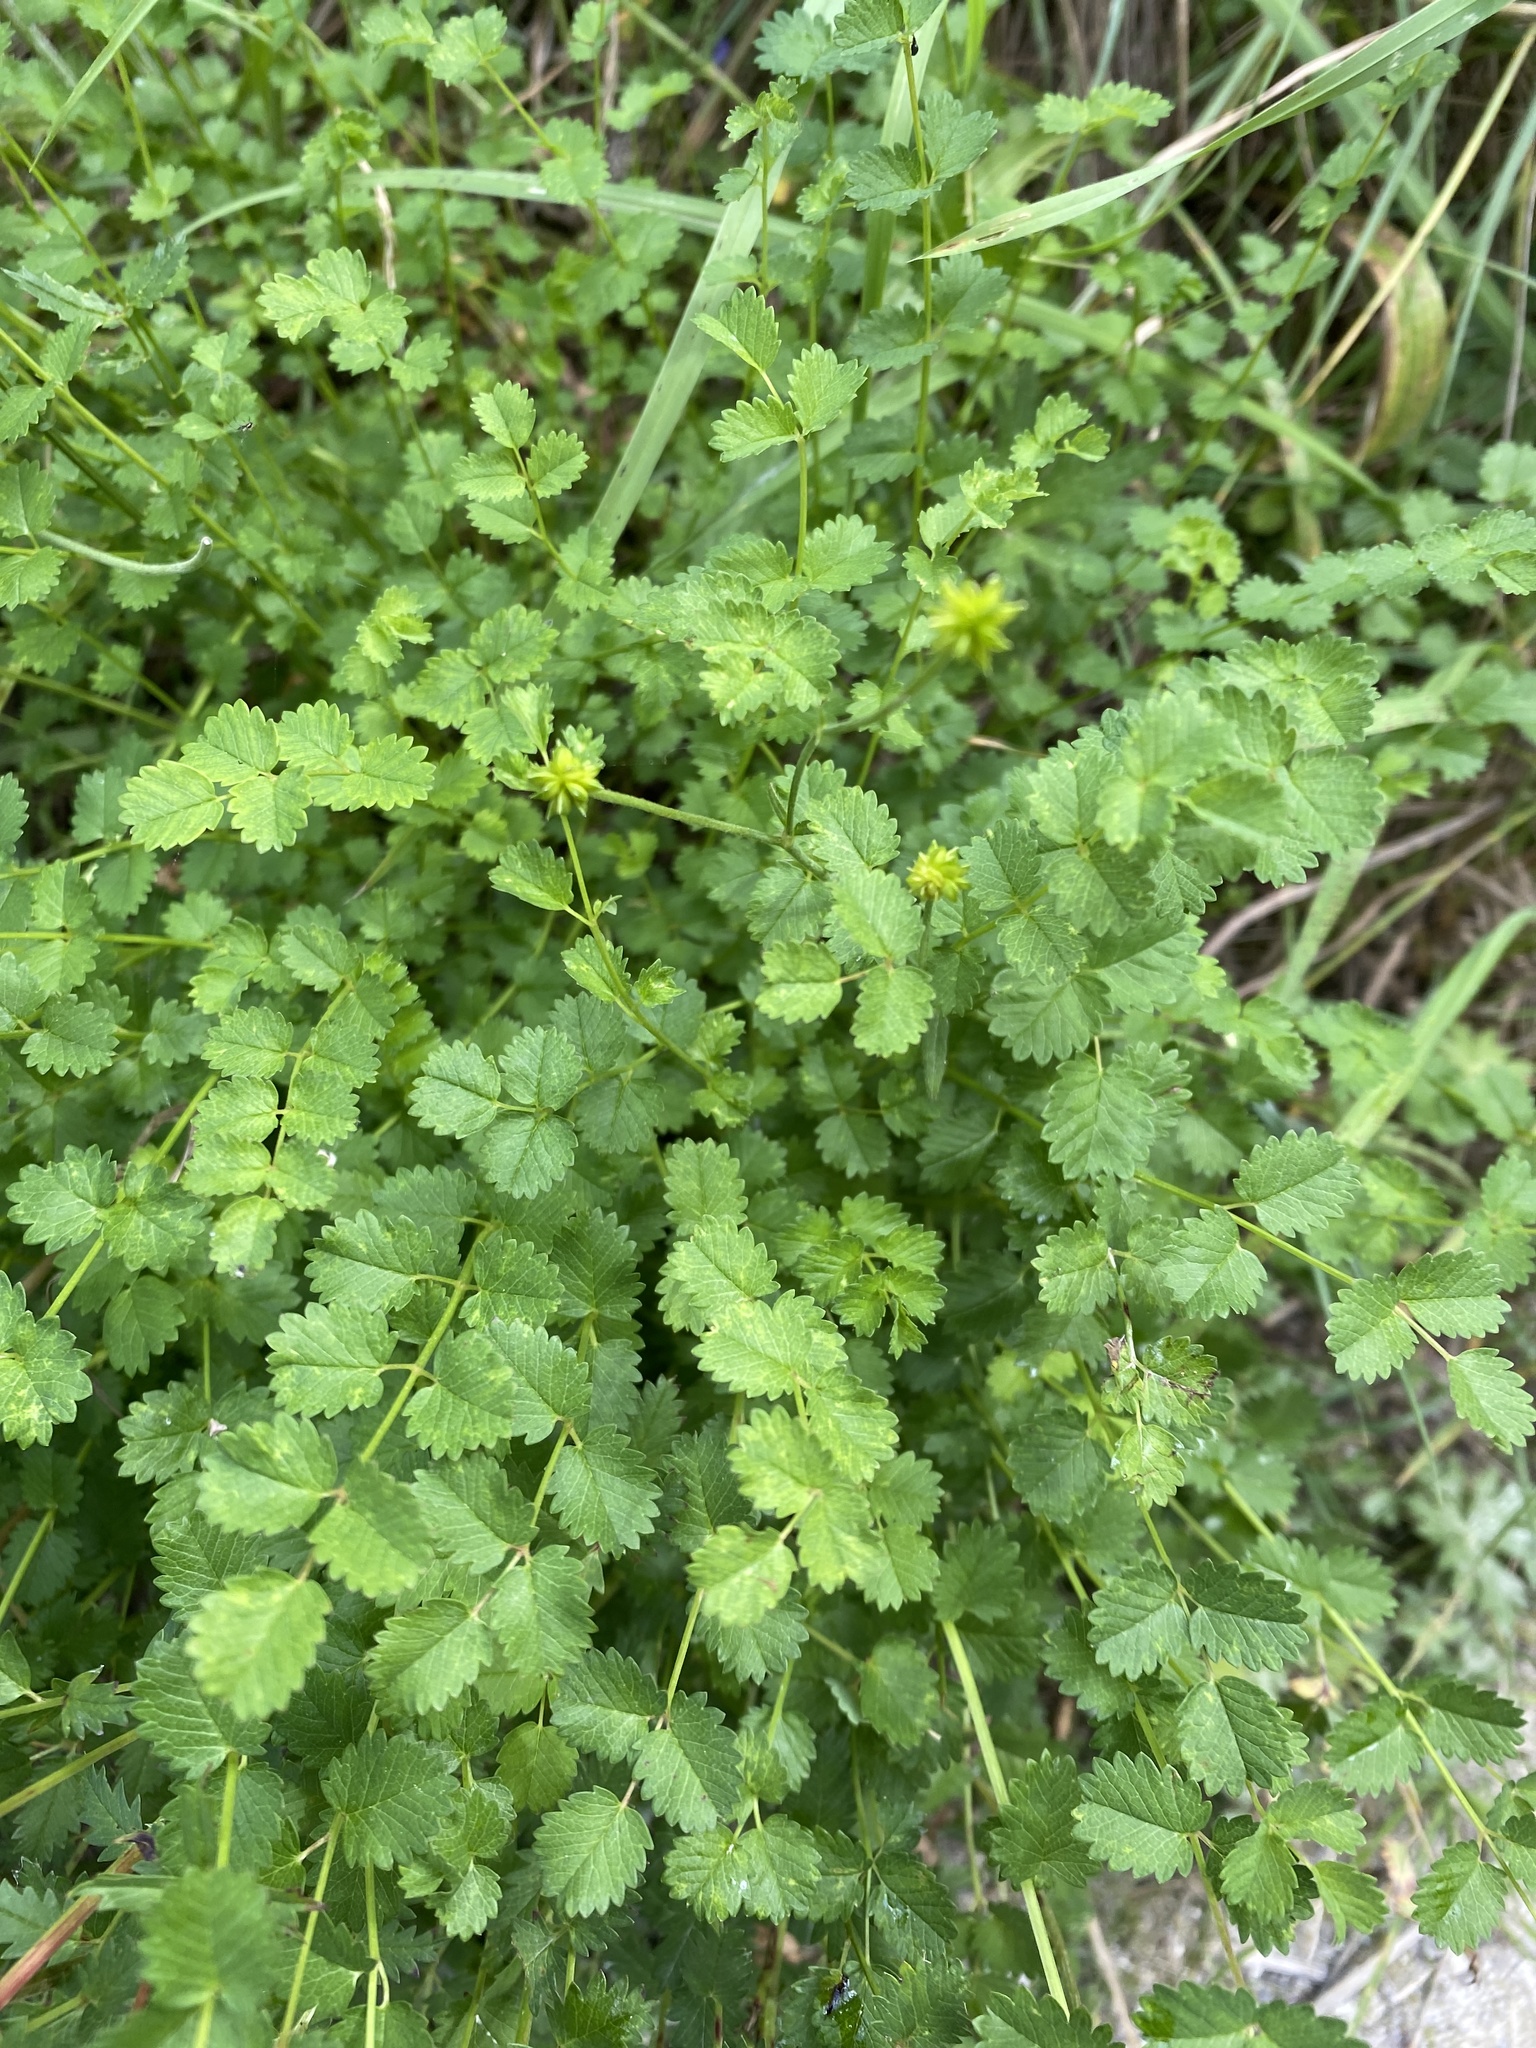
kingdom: Plantae
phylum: Tracheophyta
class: Magnoliopsida
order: Rosales
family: Rosaceae
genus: Poterium
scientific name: Poterium sanguisorba
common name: Salad burnet
